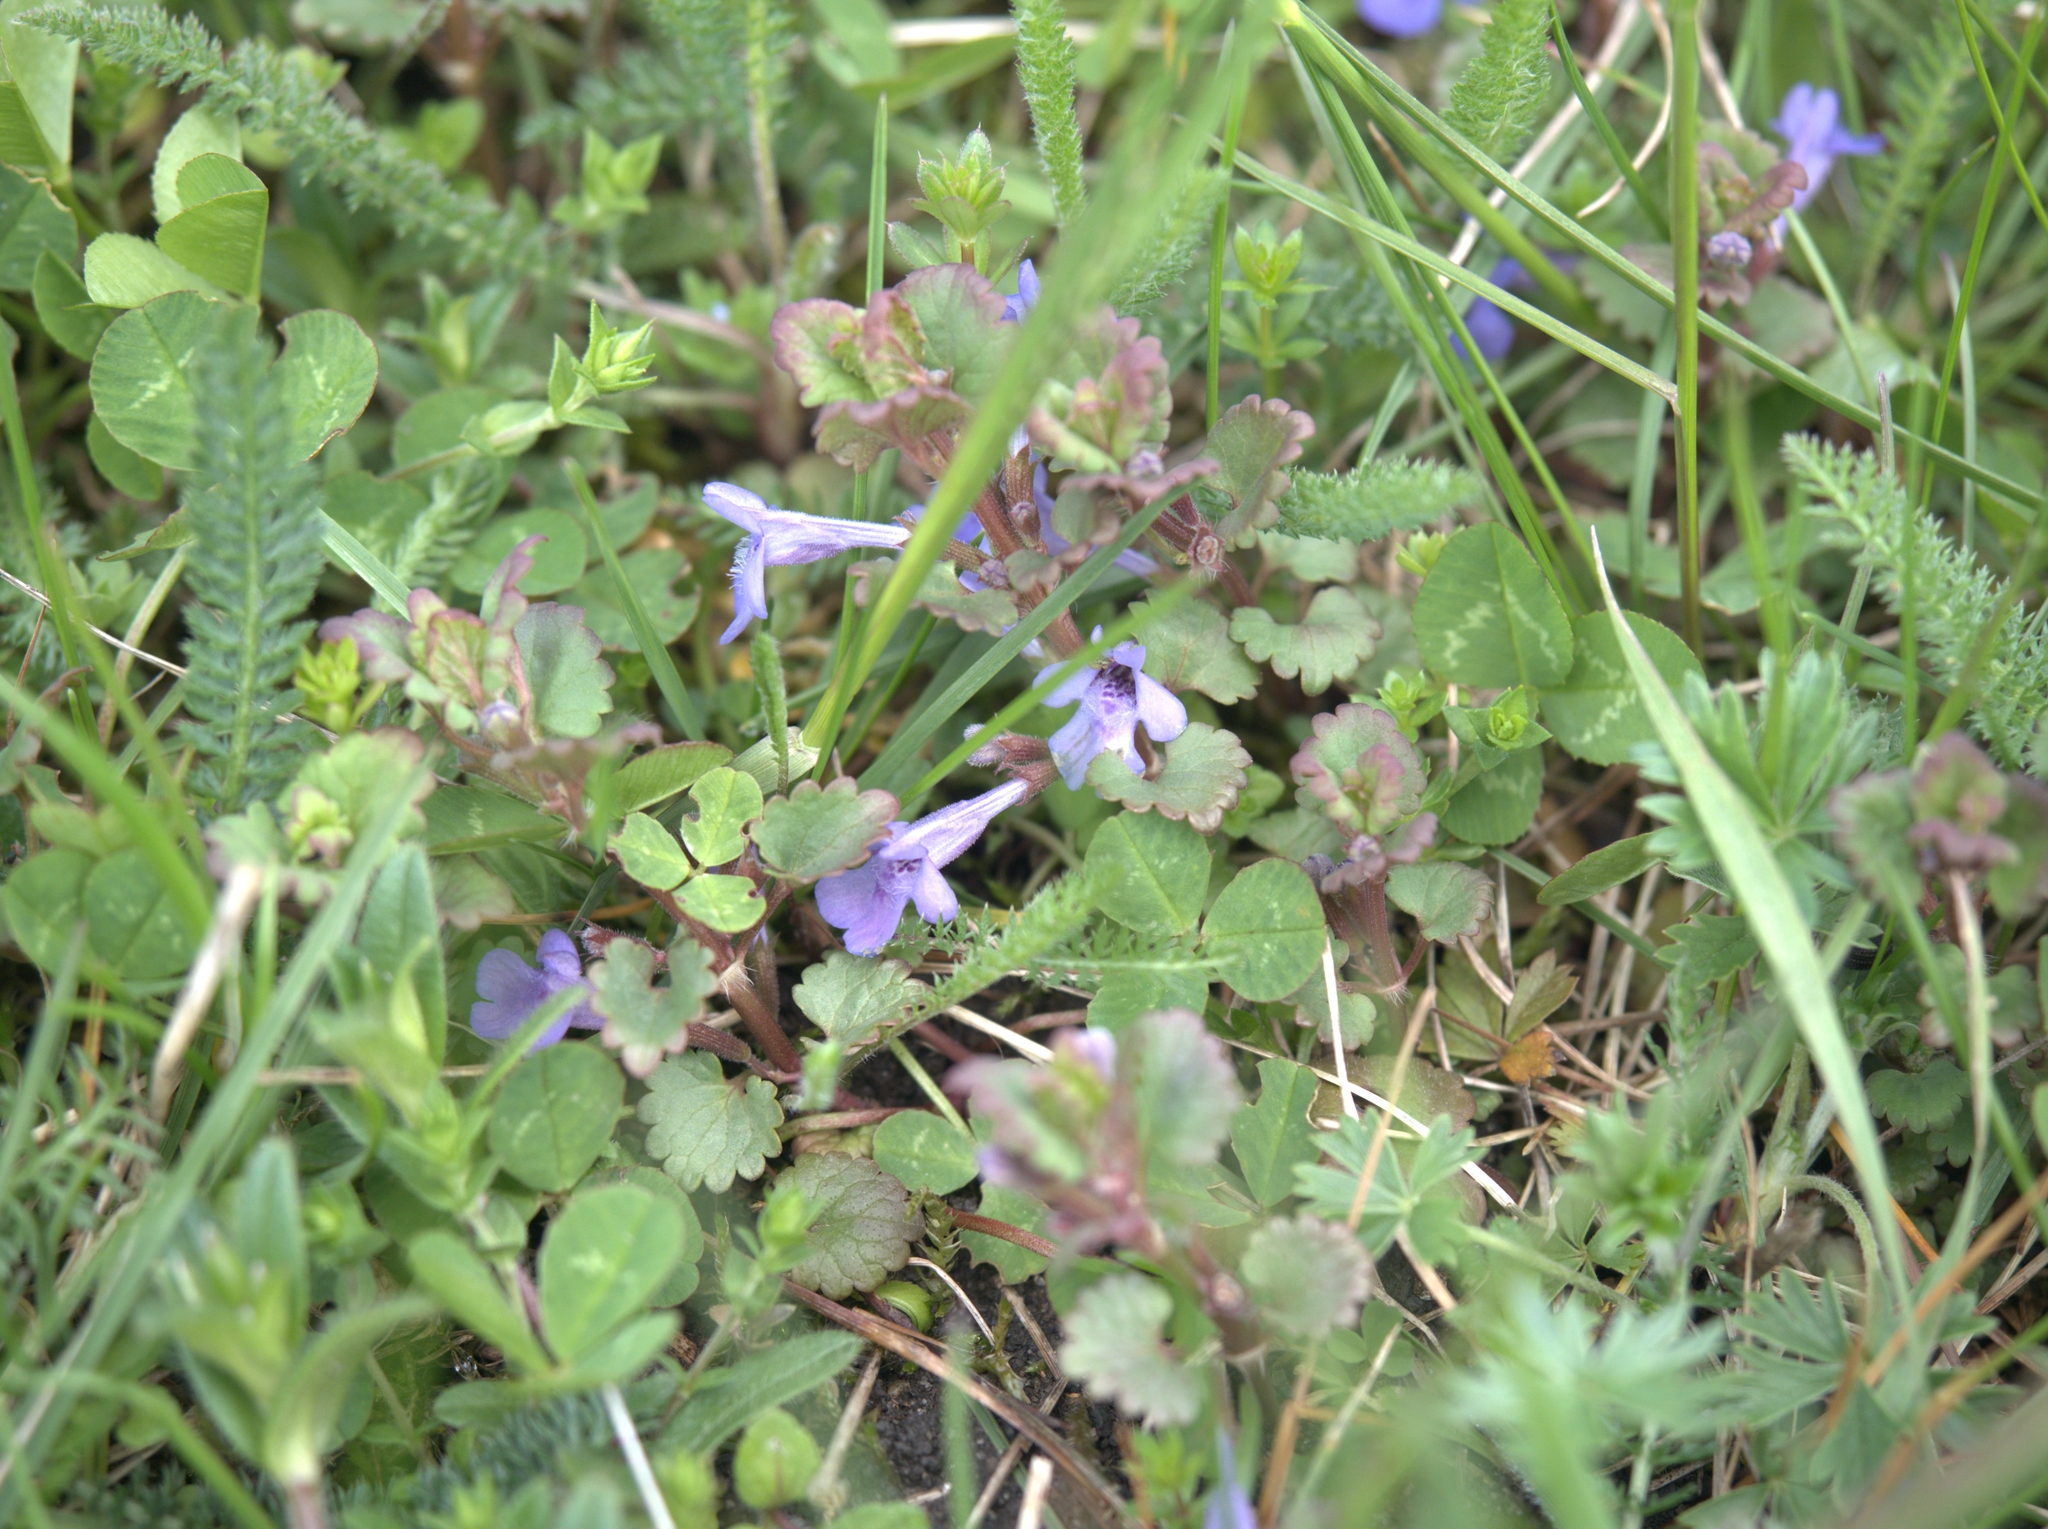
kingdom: Plantae
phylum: Tracheophyta
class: Magnoliopsida
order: Lamiales
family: Lamiaceae
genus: Glechoma
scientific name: Glechoma hederacea
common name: Ground ivy
